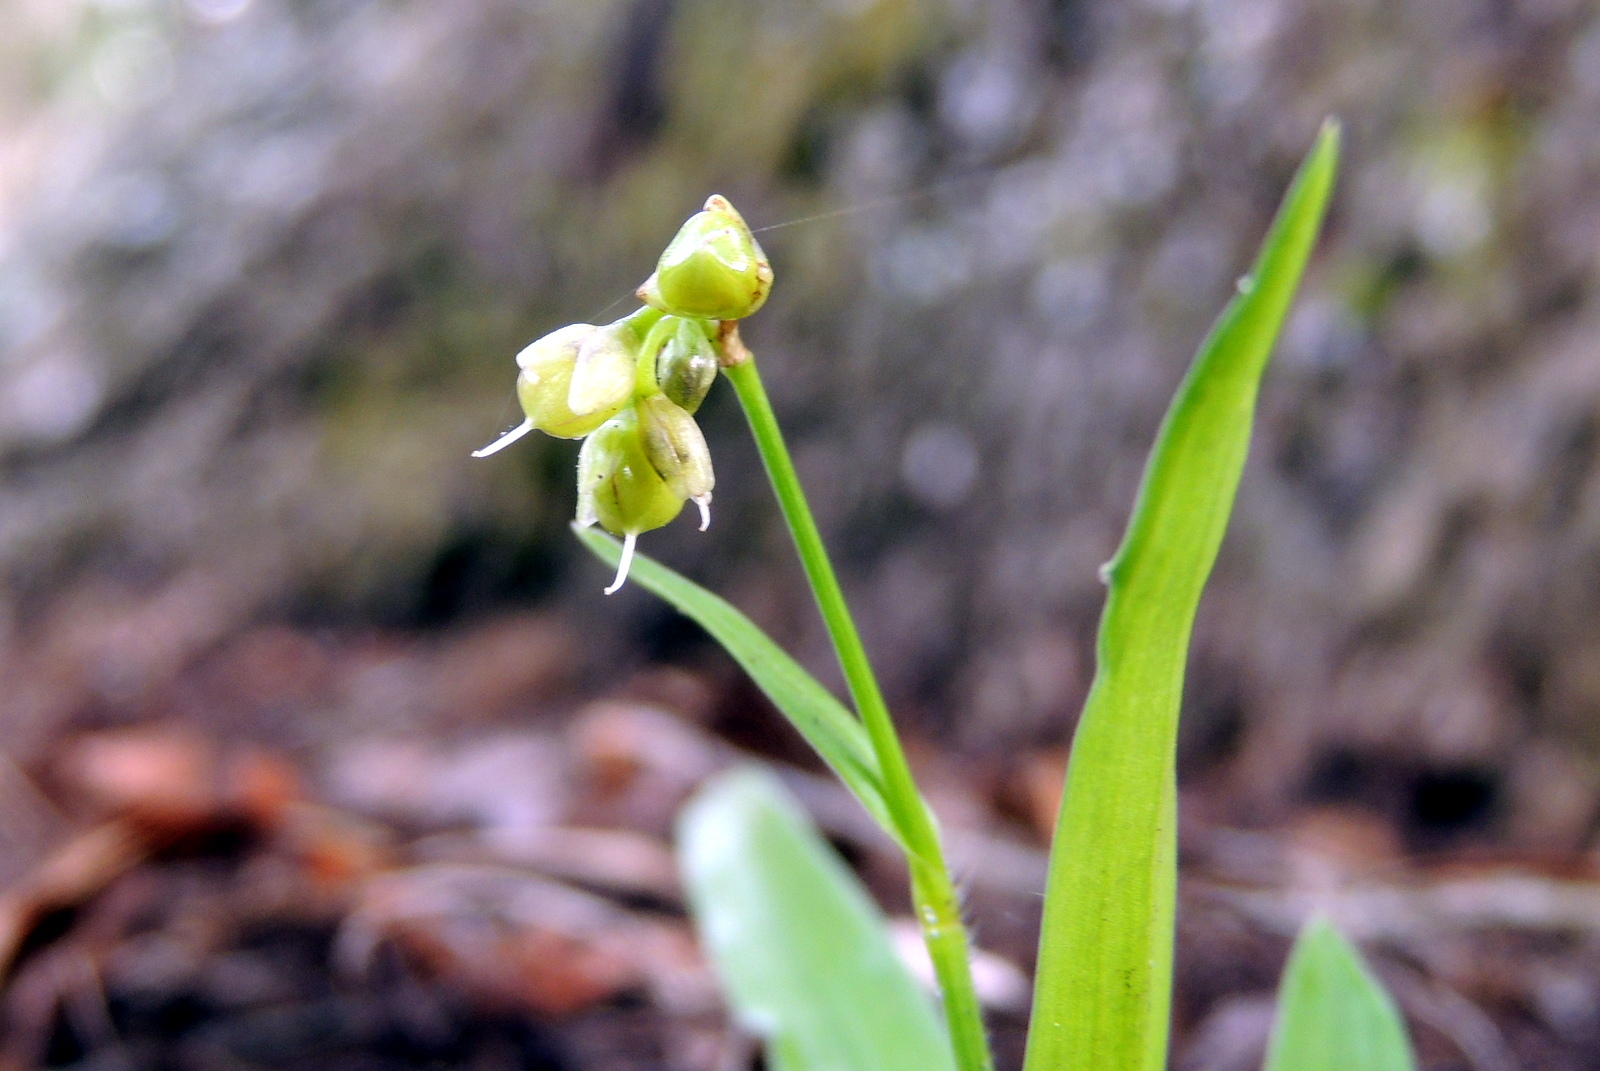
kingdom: Plantae
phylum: Tracheophyta
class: Liliopsida
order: Commelinales
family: Commelinaceae
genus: Murdannia
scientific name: Murdannia nudiflora
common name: Nakedstem dewflower
